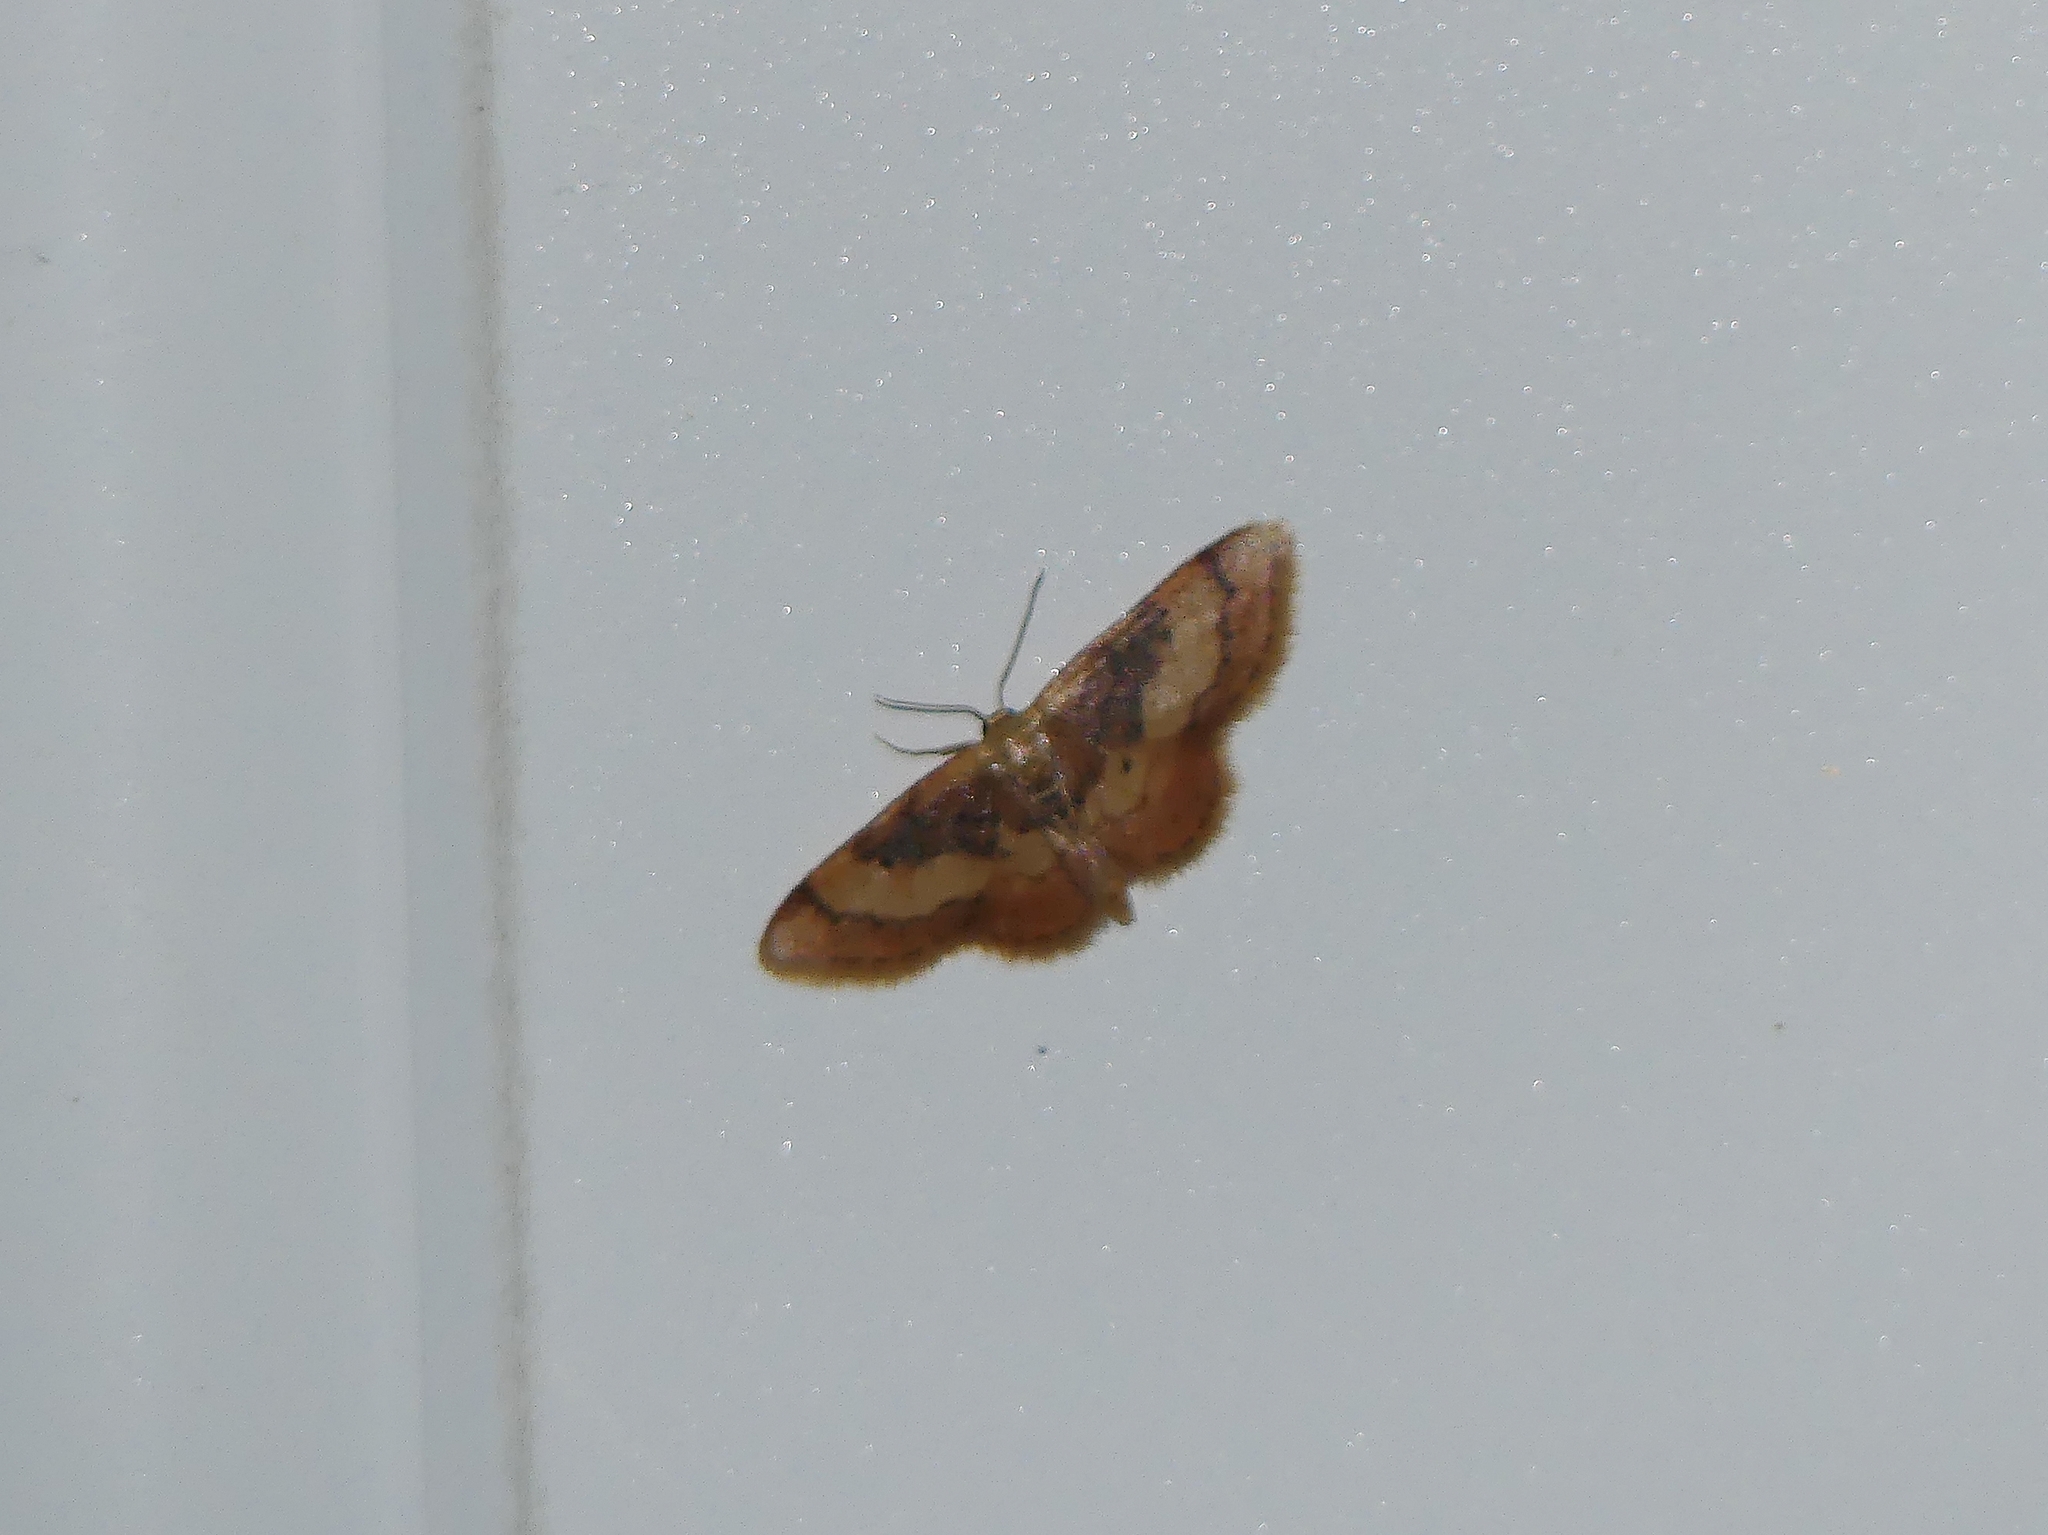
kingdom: Animalia
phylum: Arthropoda
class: Insecta
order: Lepidoptera
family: Geometridae
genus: Idaea
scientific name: Idaea demissaria
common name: Red-bordered wave
